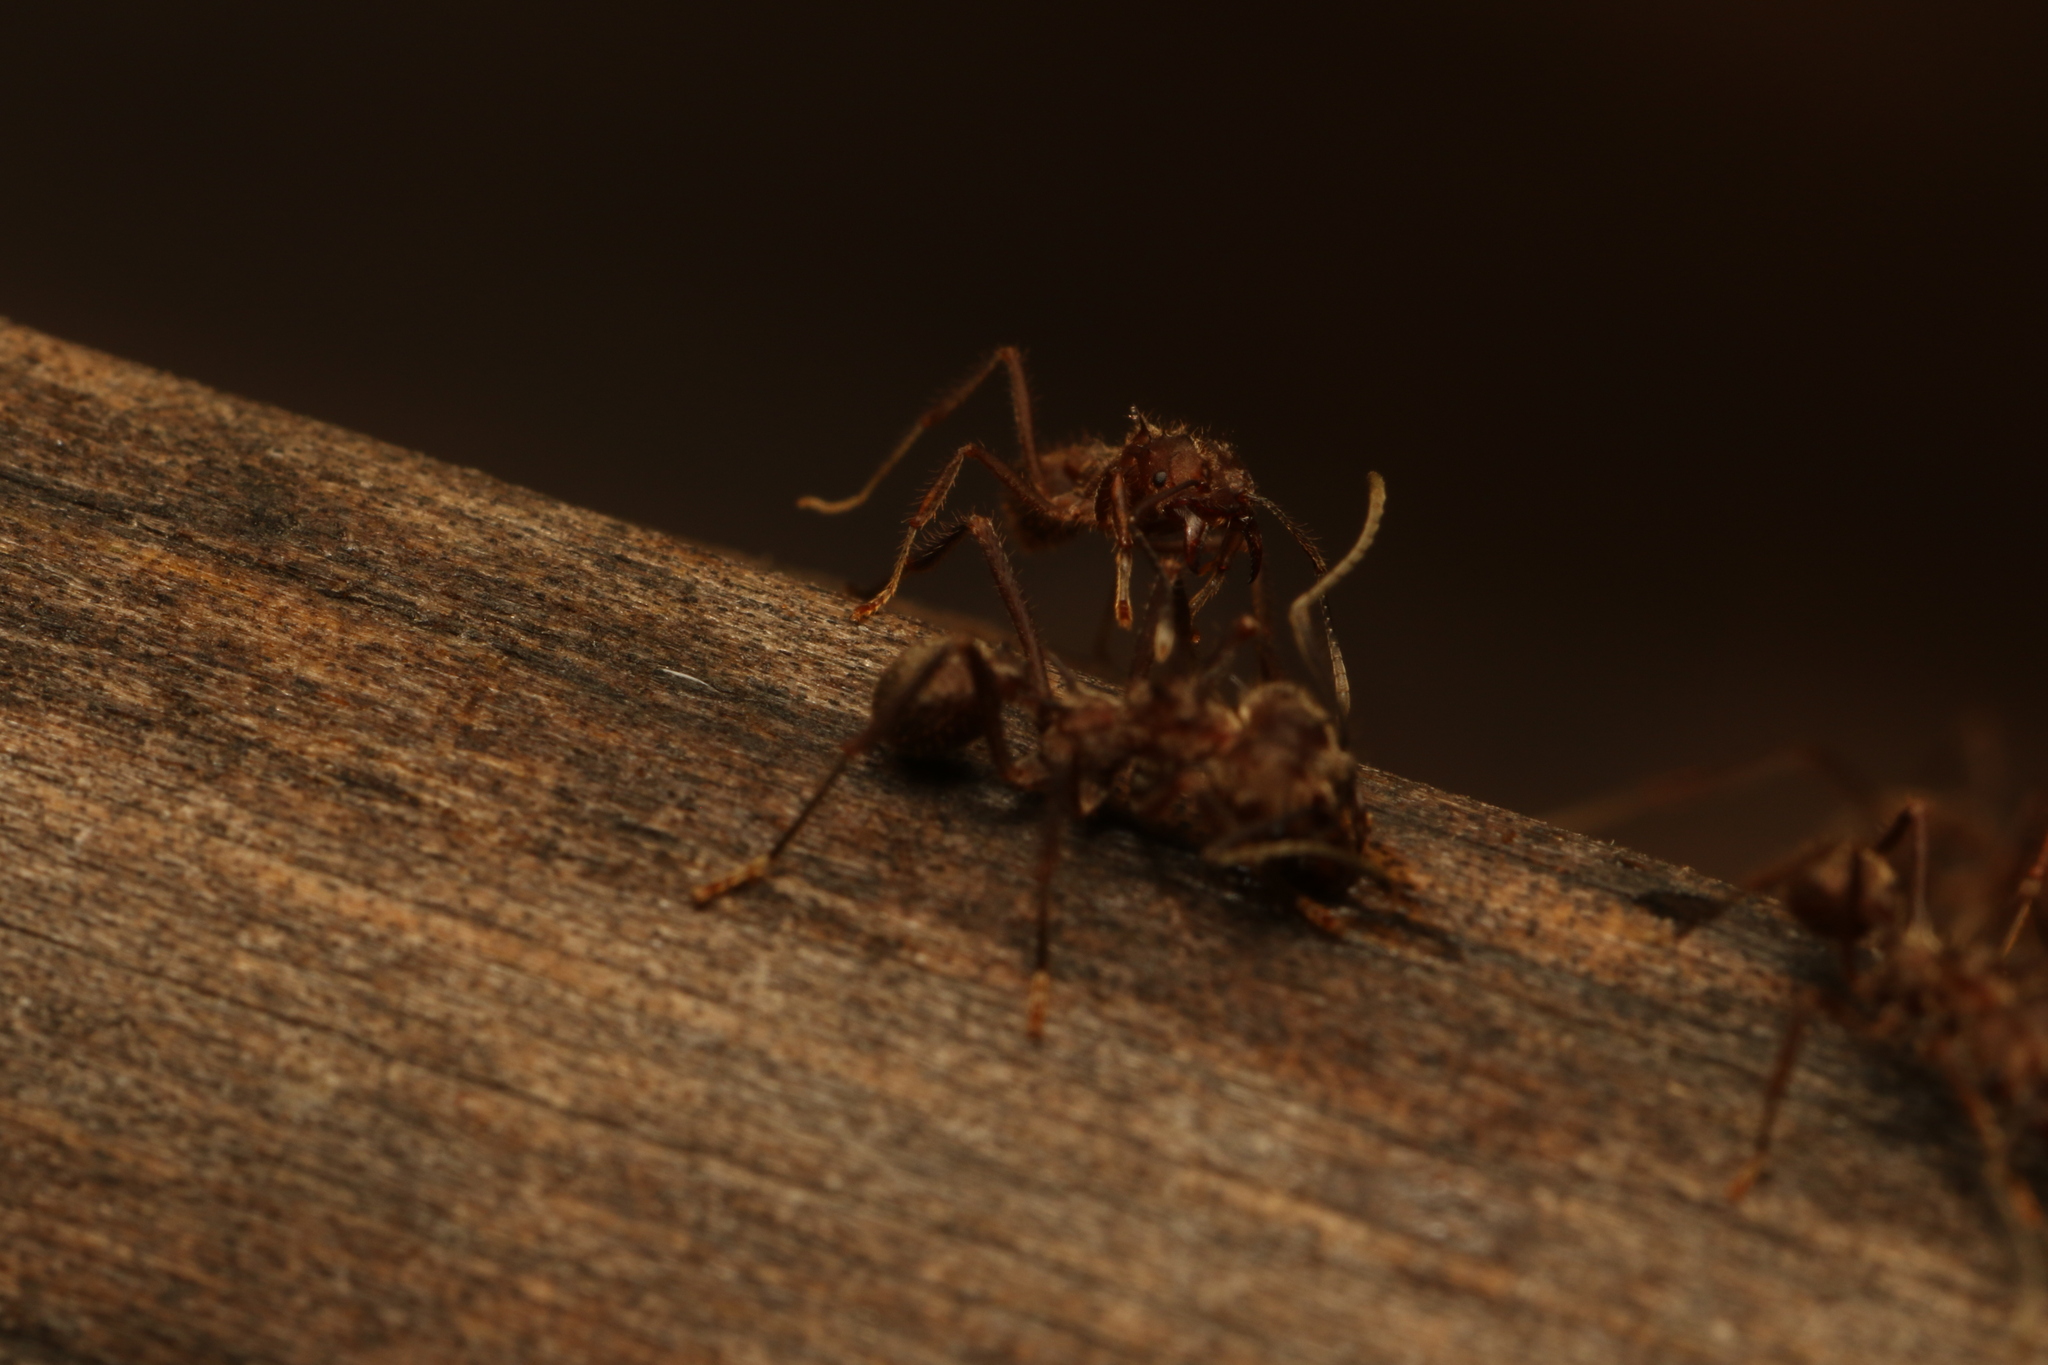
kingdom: Animalia
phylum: Arthropoda
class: Insecta
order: Hymenoptera
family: Formicidae
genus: Acromyrmex
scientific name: Acromyrmex disciger
